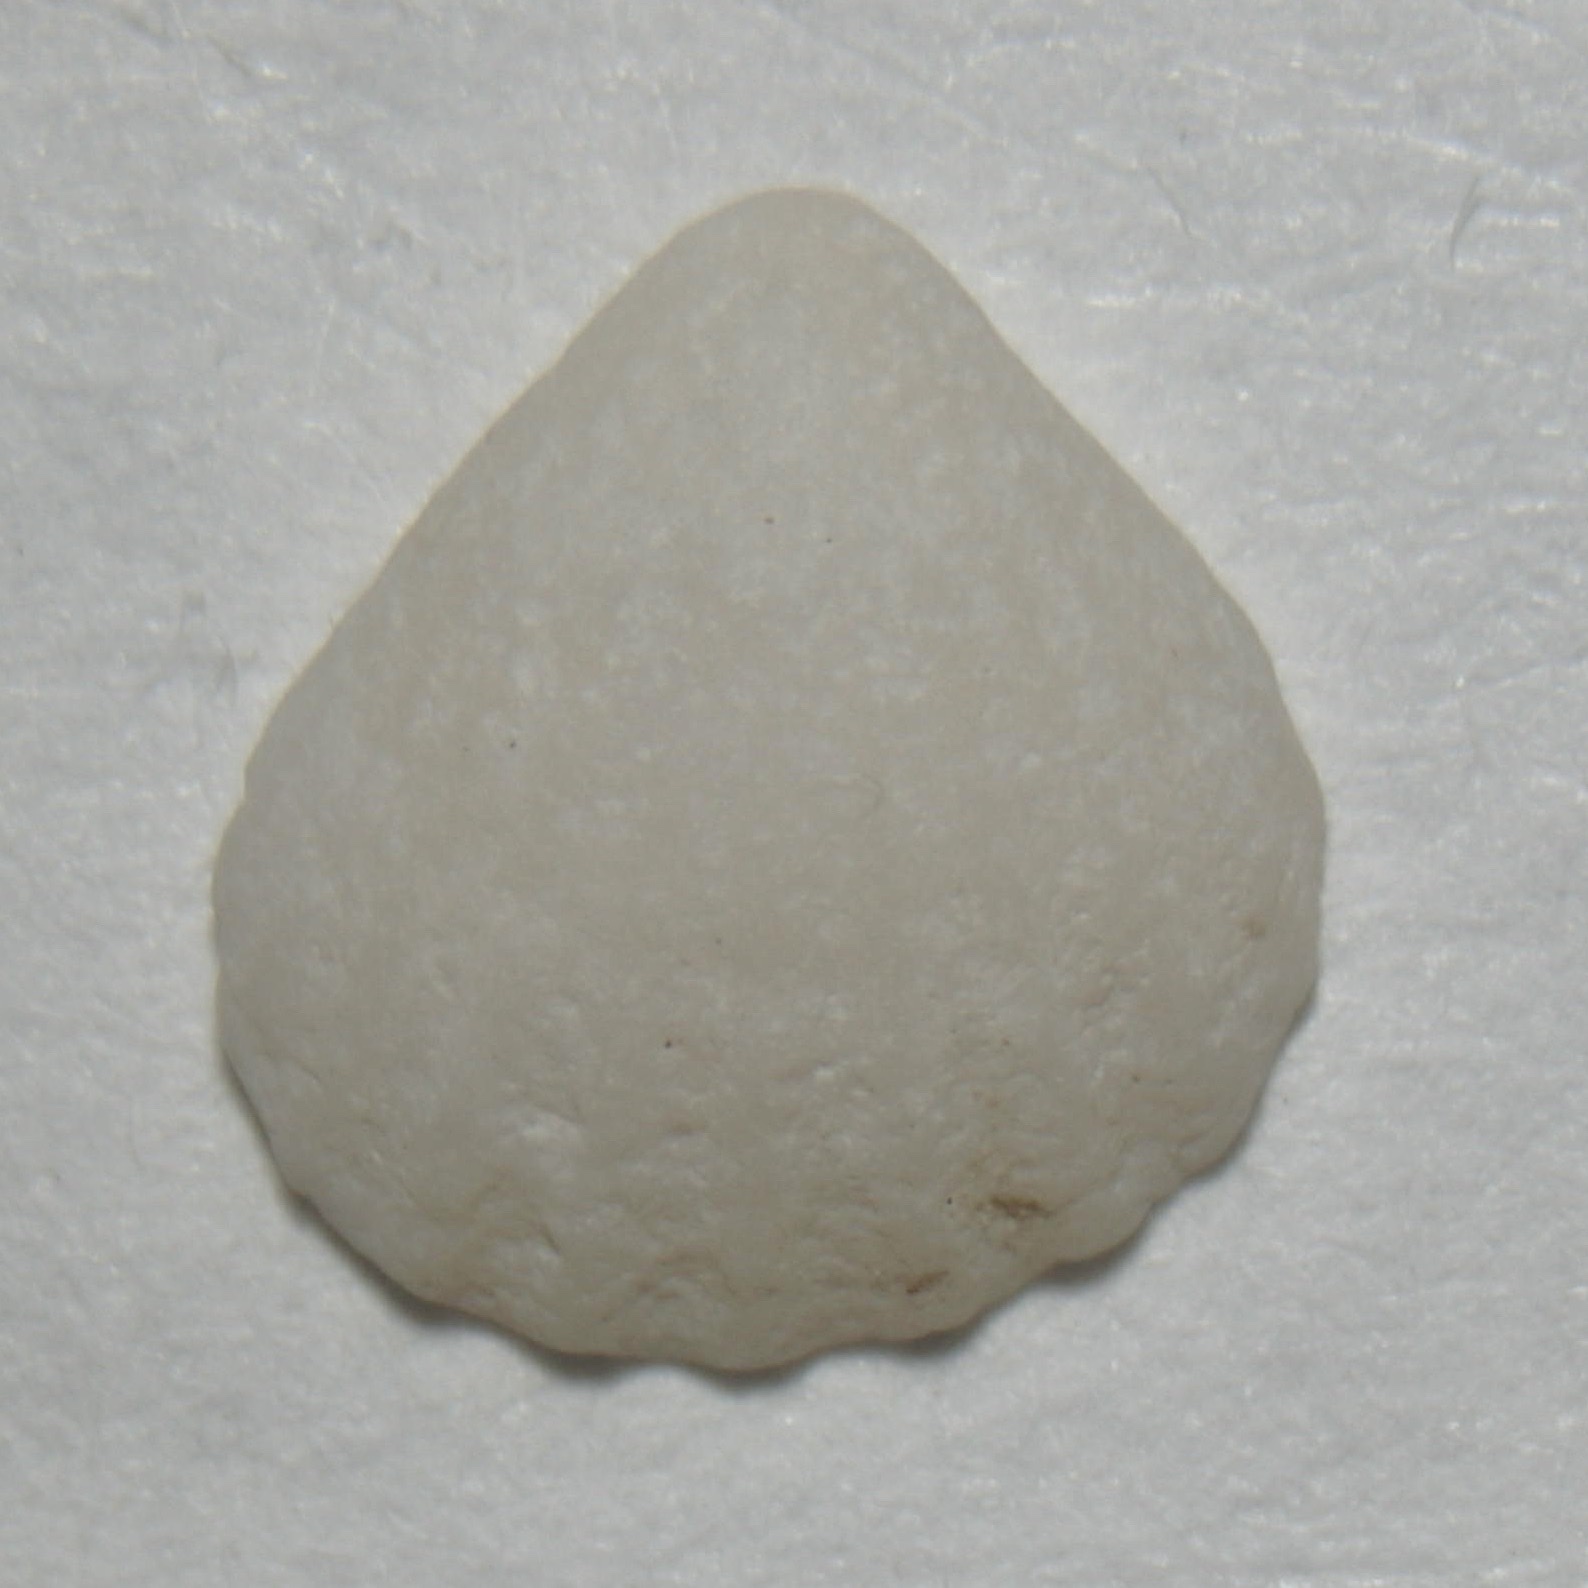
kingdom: Animalia
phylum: Mollusca
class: Bivalvia
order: Carditida
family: Carditidae
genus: Pleuromeris
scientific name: Pleuromeris tridentata
